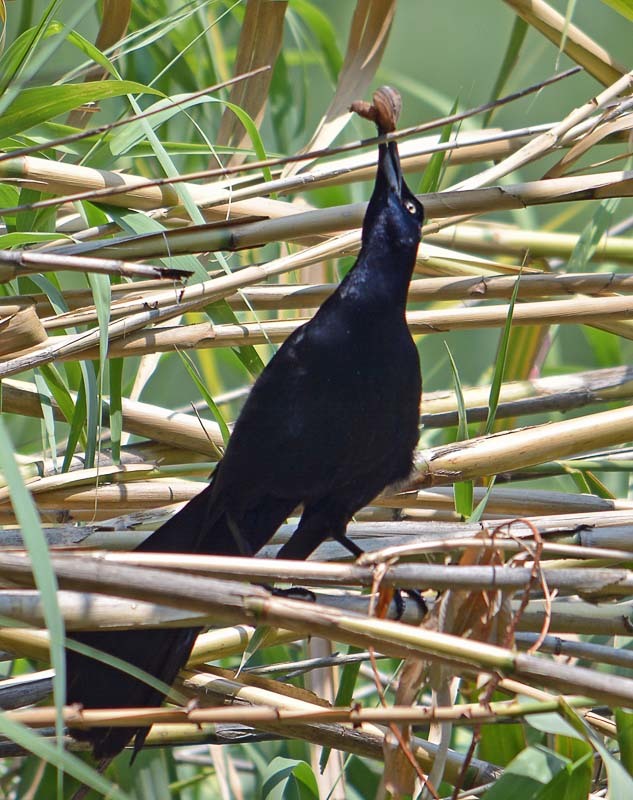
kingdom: Animalia
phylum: Chordata
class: Aves
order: Passeriformes
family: Icteridae
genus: Quiscalus
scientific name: Quiscalus mexicanus
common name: Great-tailed grackle
